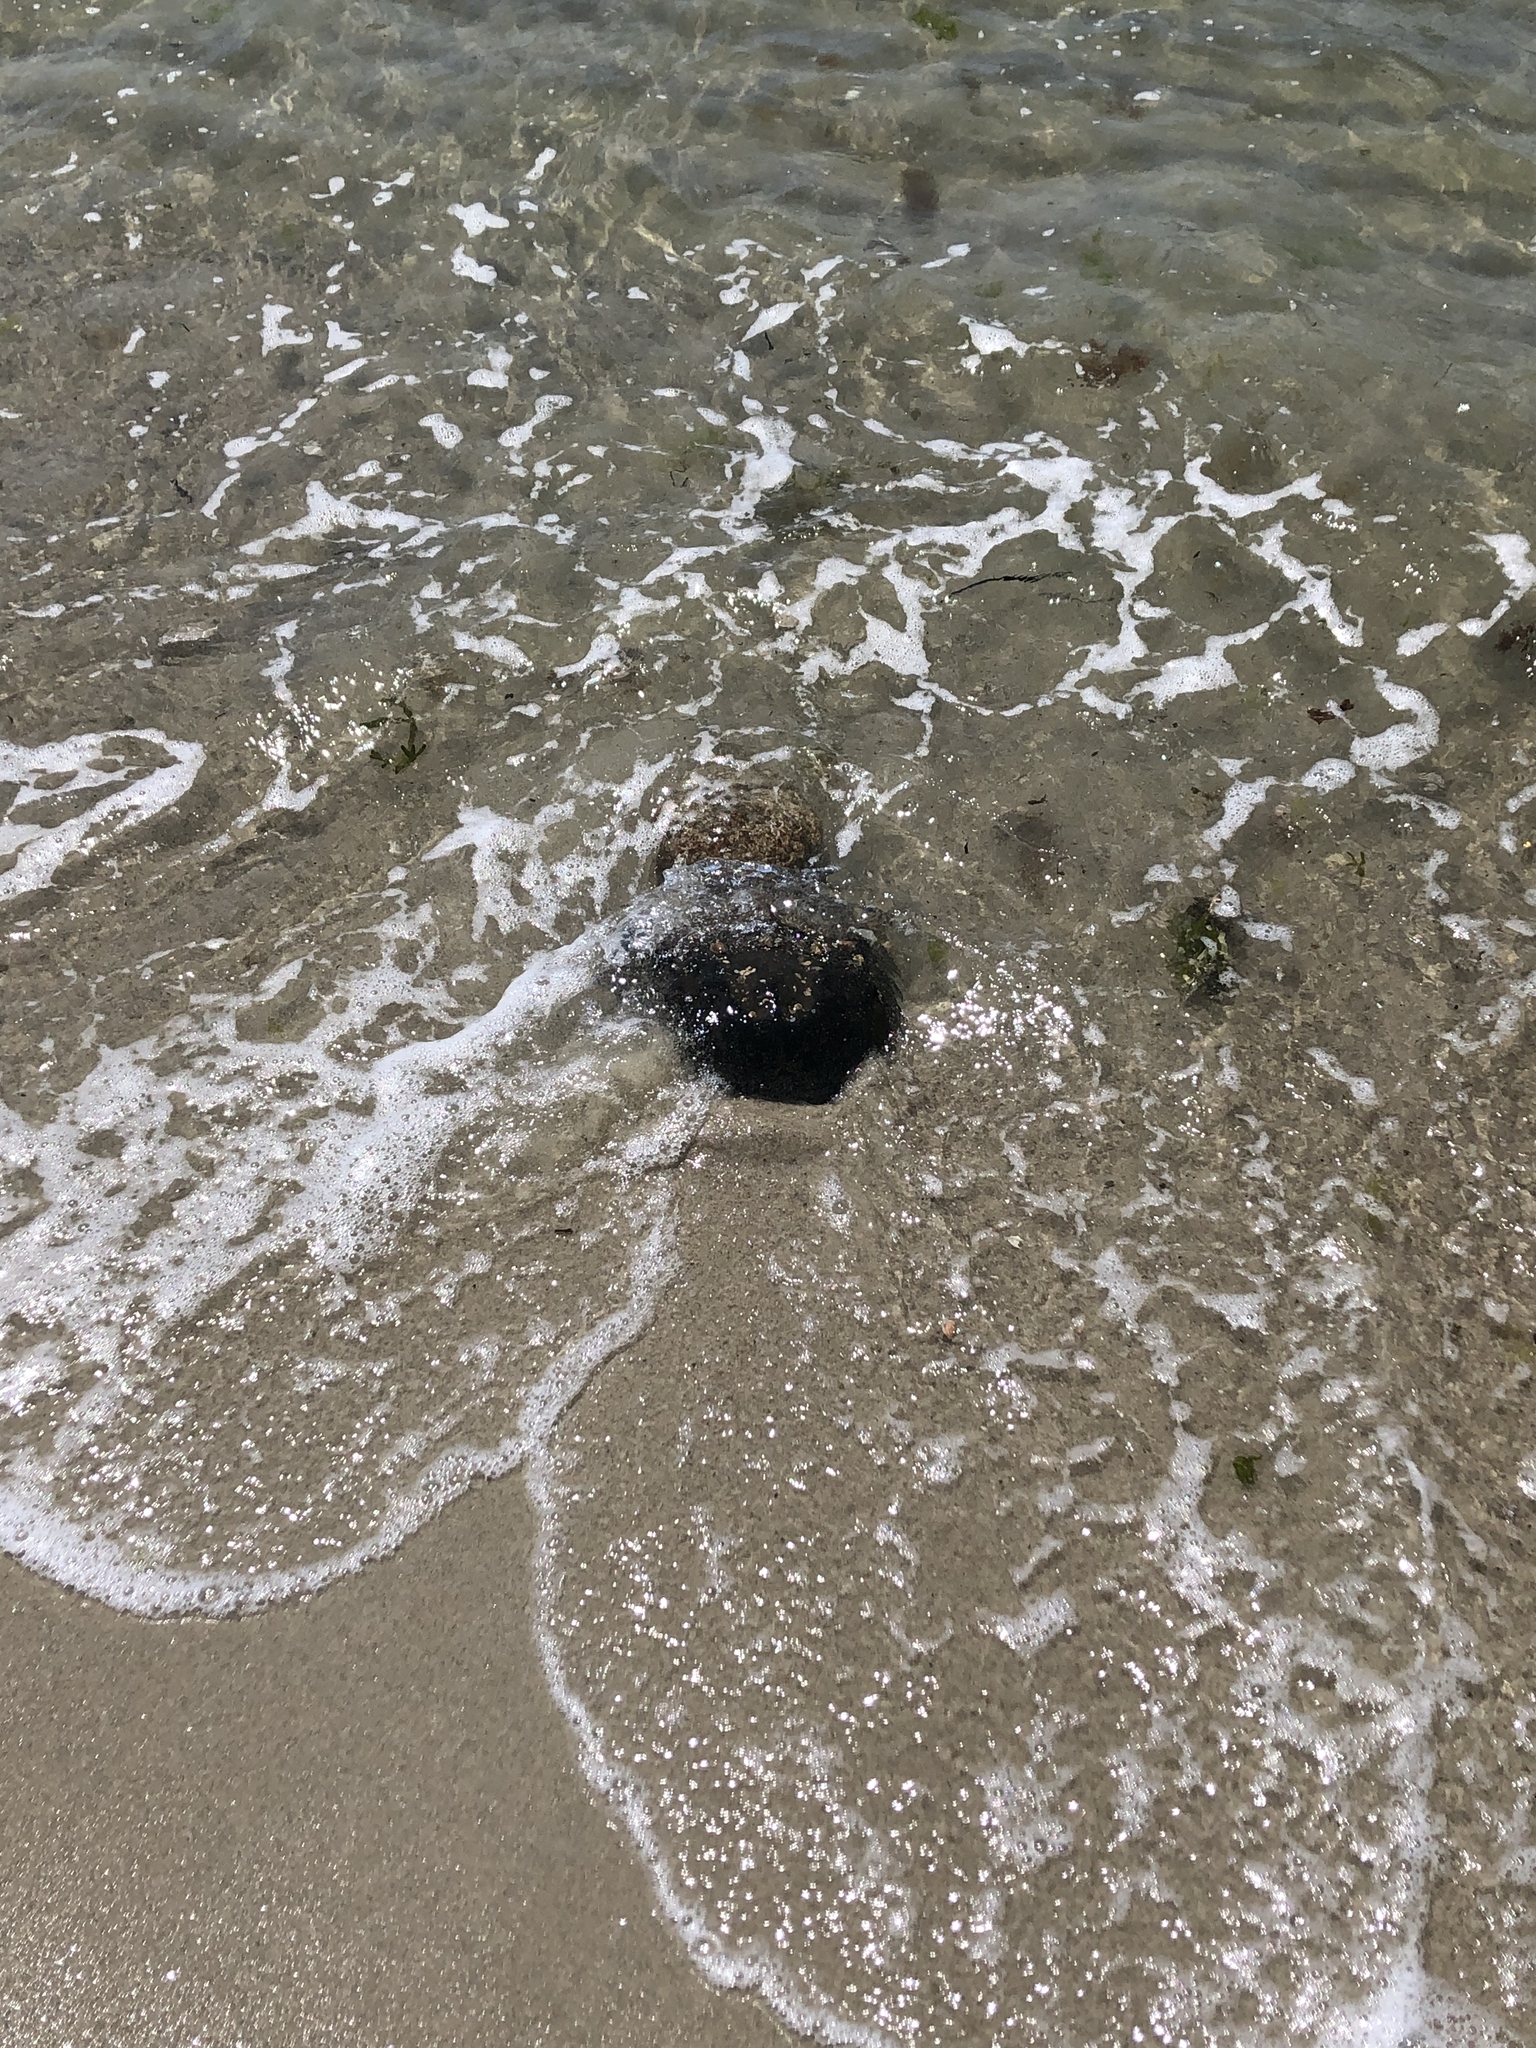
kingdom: Animalia
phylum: Arthropoda
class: Merostomata
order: Xiphosurida
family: Limulidae
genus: Limulus
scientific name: Limulus polyphemus
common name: Horseshoe crab
